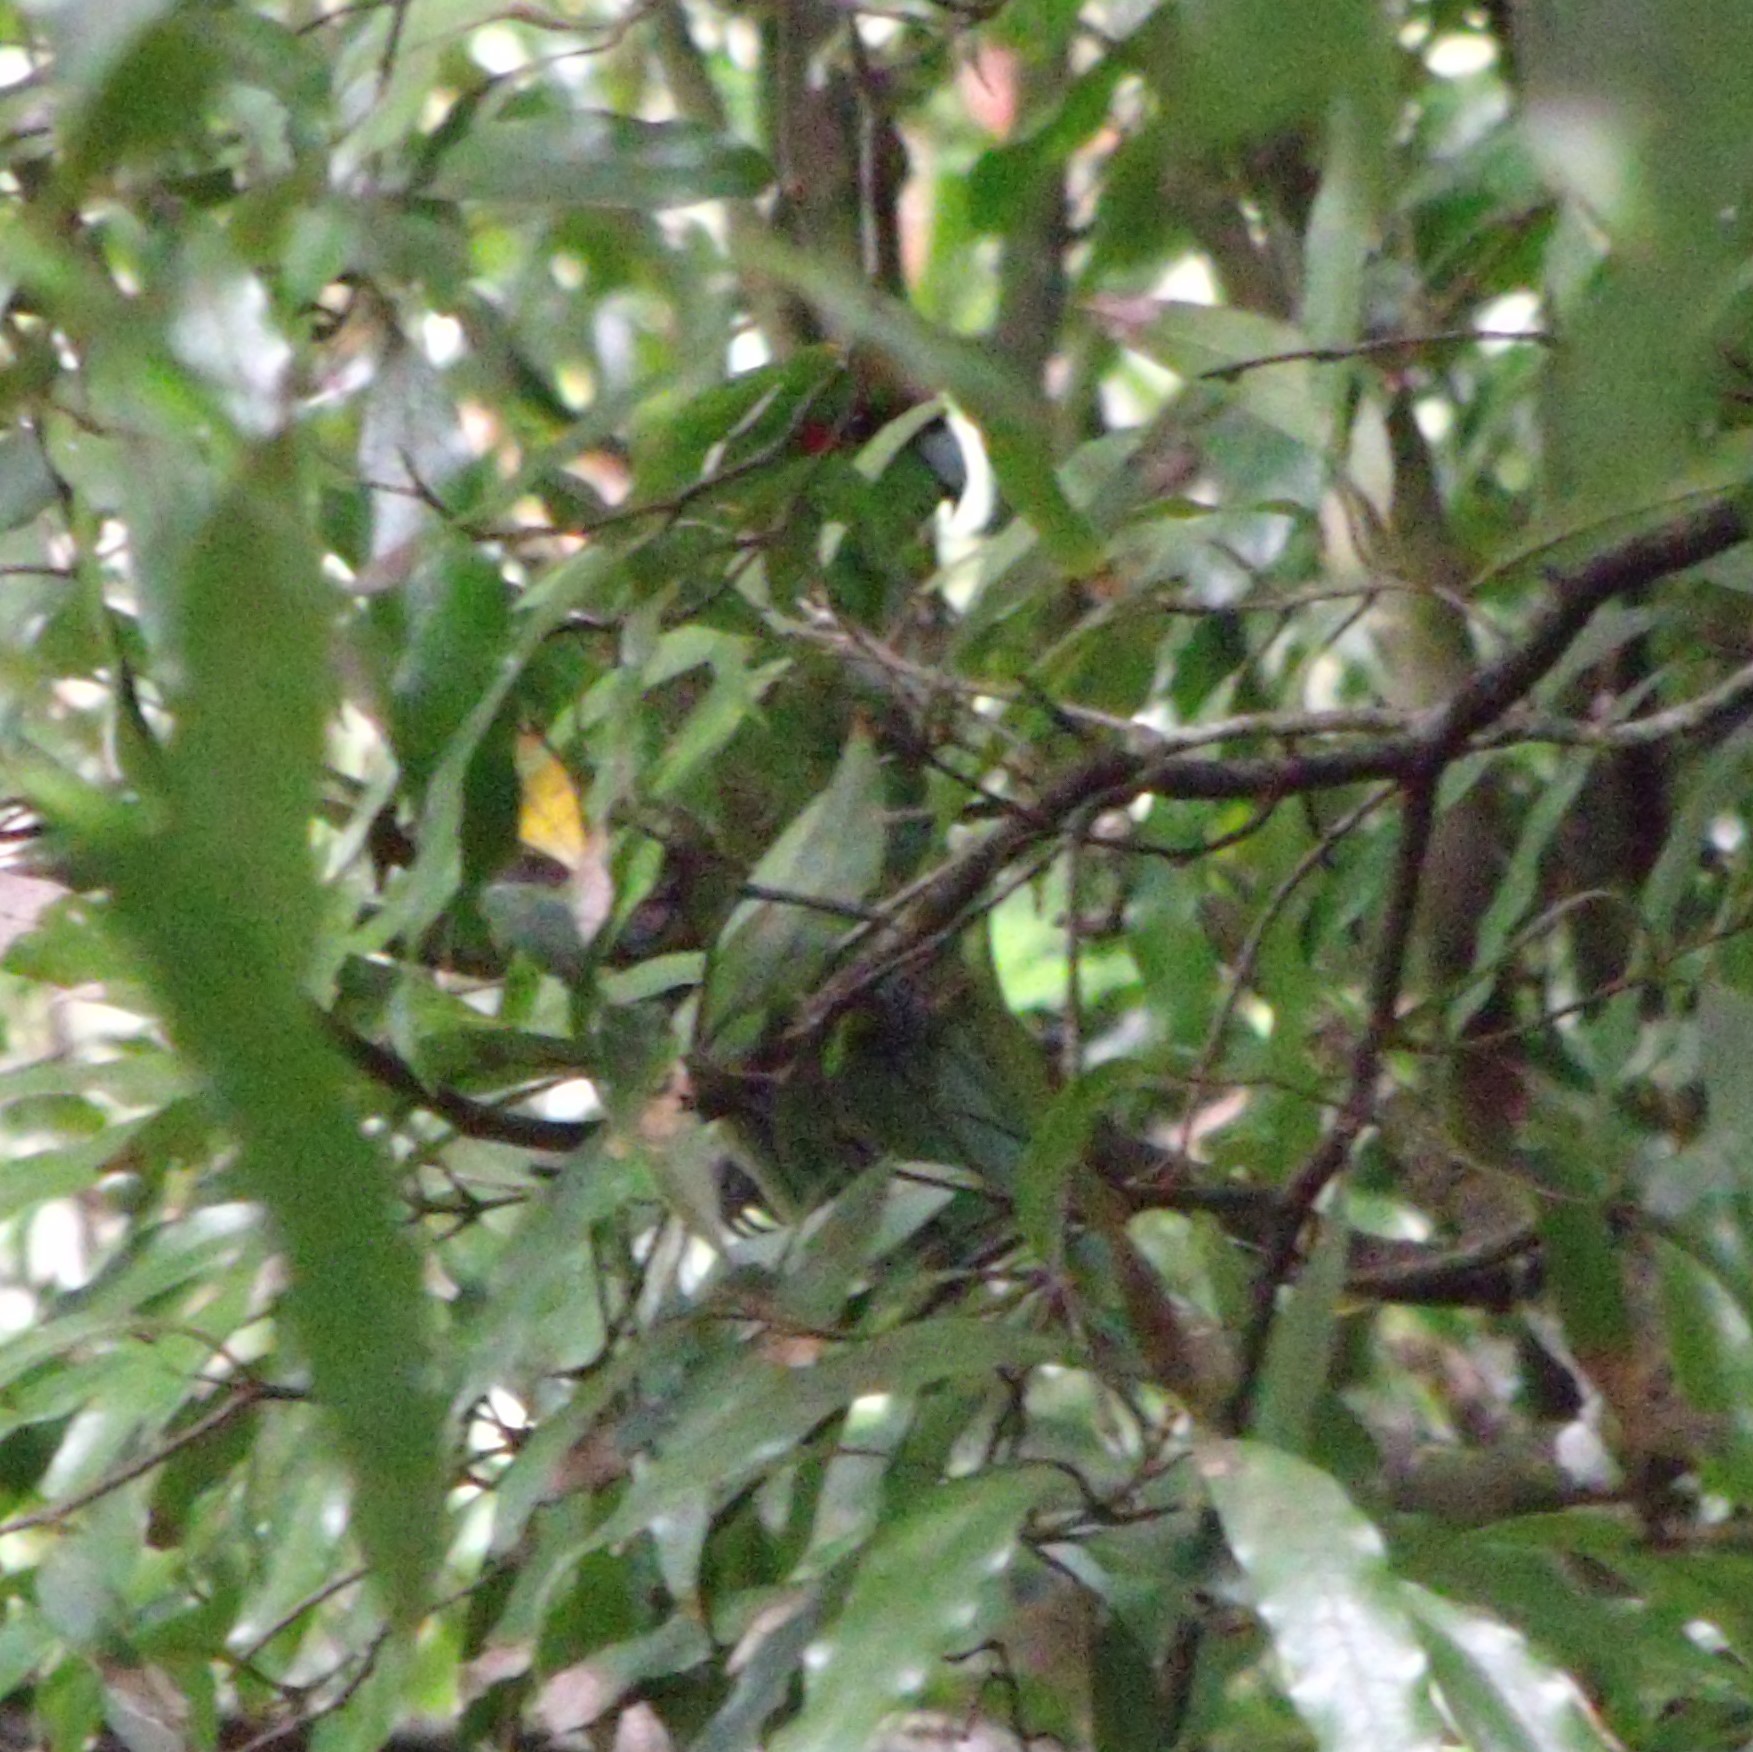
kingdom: Animalia
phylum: Chordata
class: Aves
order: Psittaciformes
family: Psittacidae
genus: Cyanoramphus
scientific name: Cyanoramphus novaezelandiae
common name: Red-fronted parakeet
